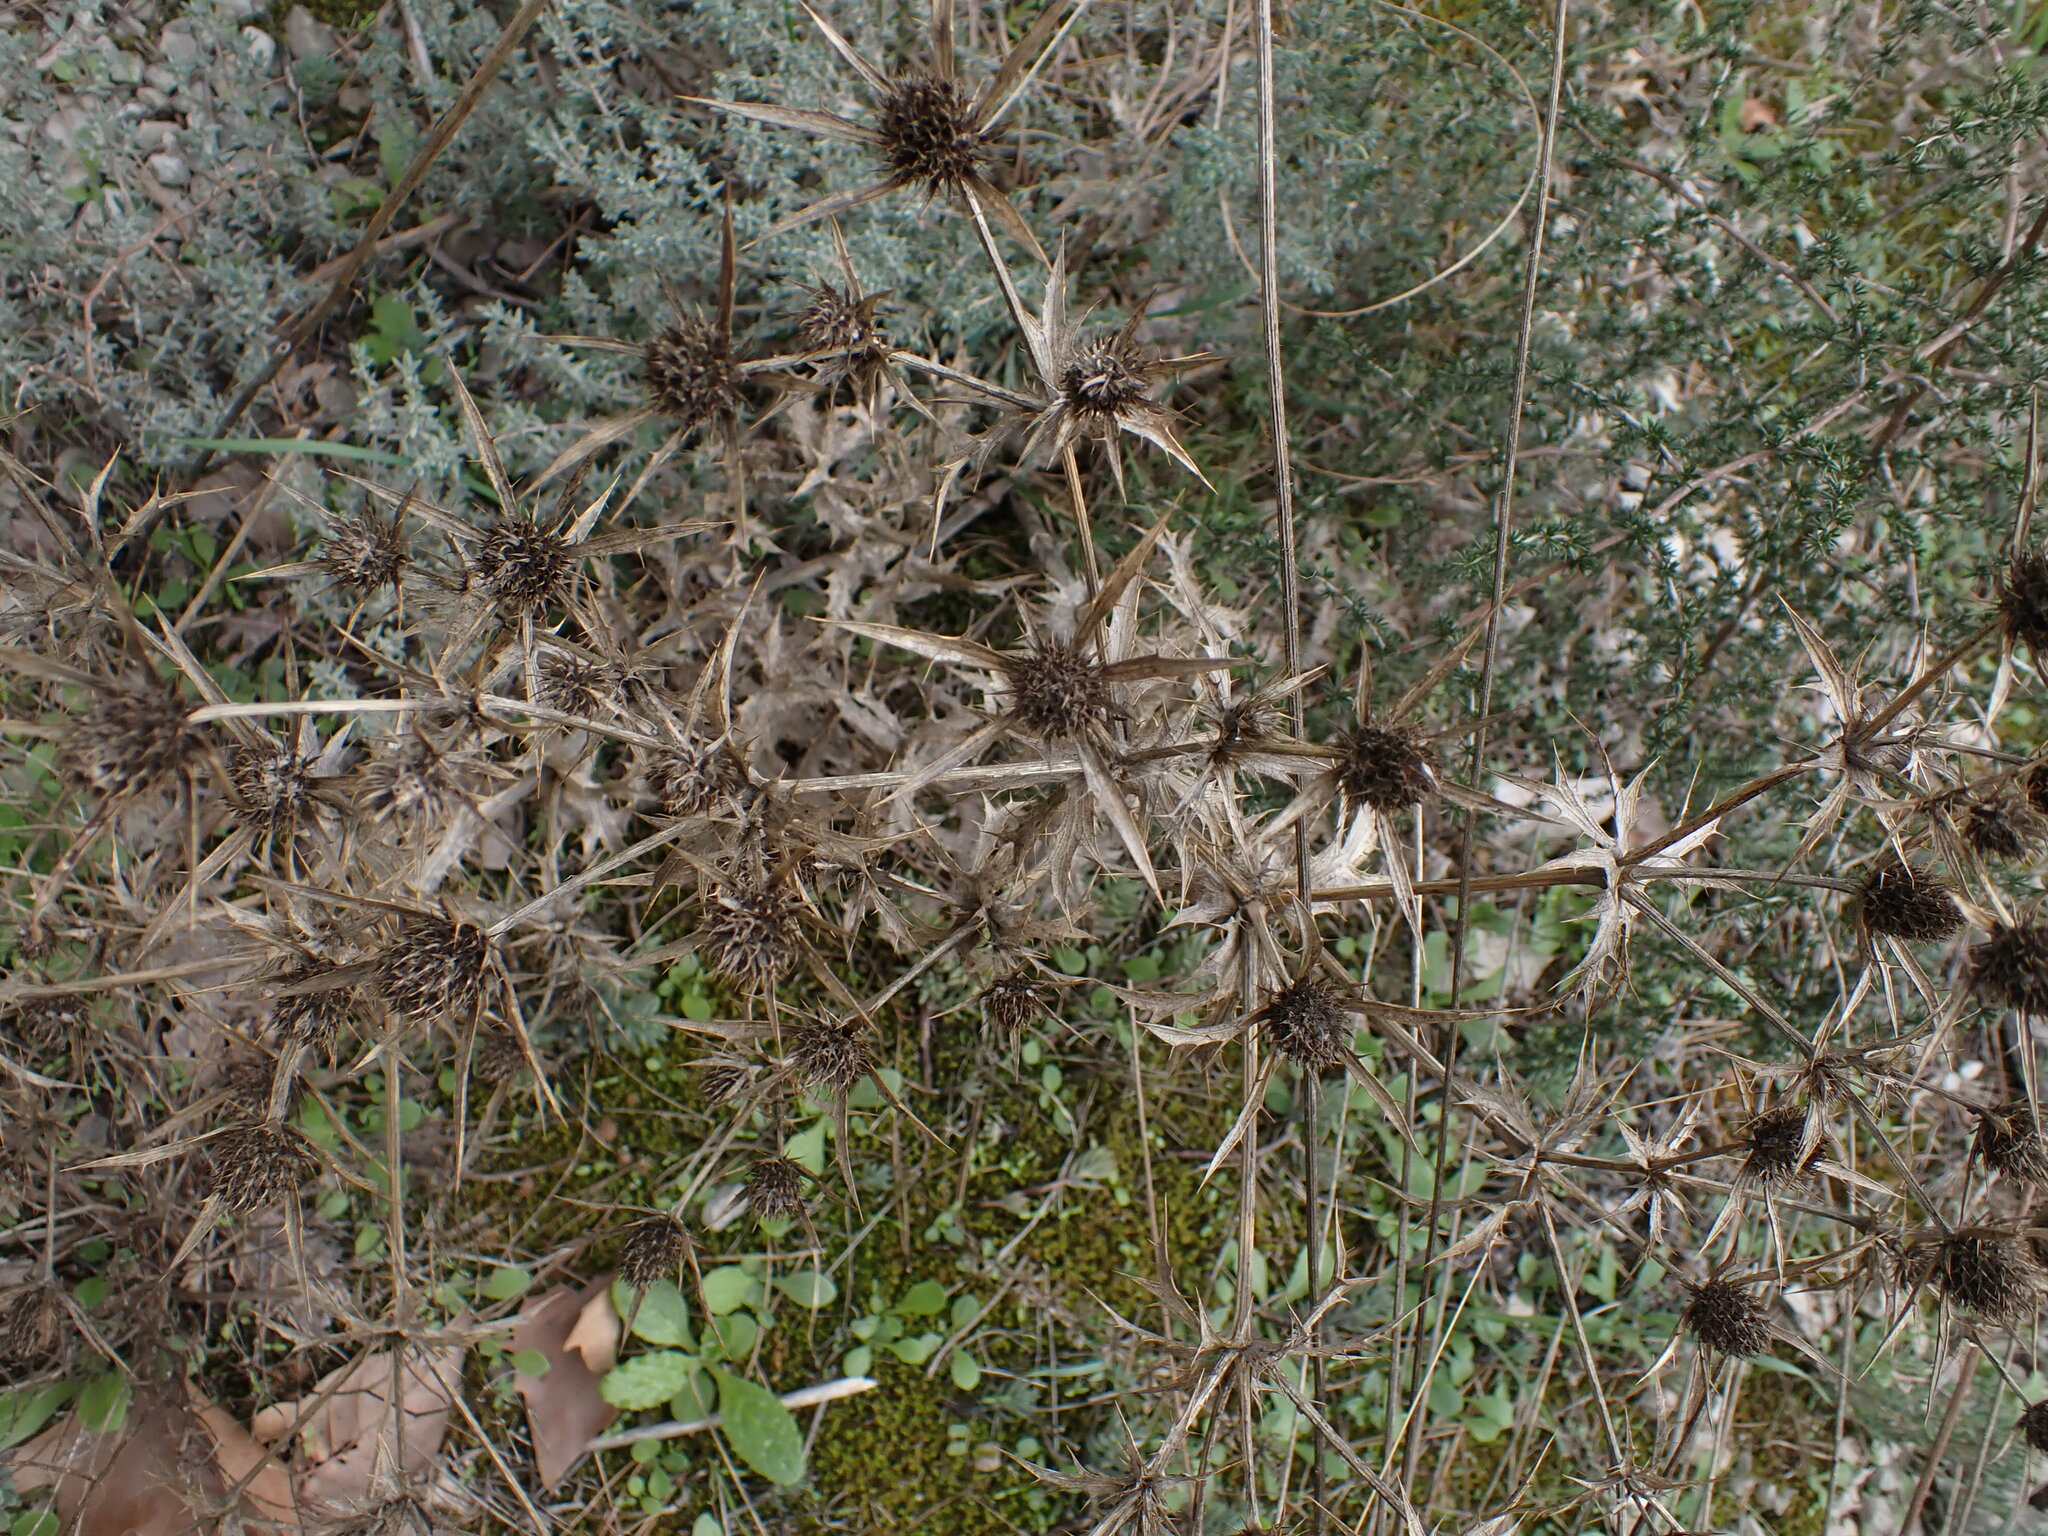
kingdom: Plantae
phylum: Tracheophyta
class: Magnoliopsida
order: Apiales
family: Apiaceae
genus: Eryngium
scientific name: Eryngium campestre
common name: Field eryngo
